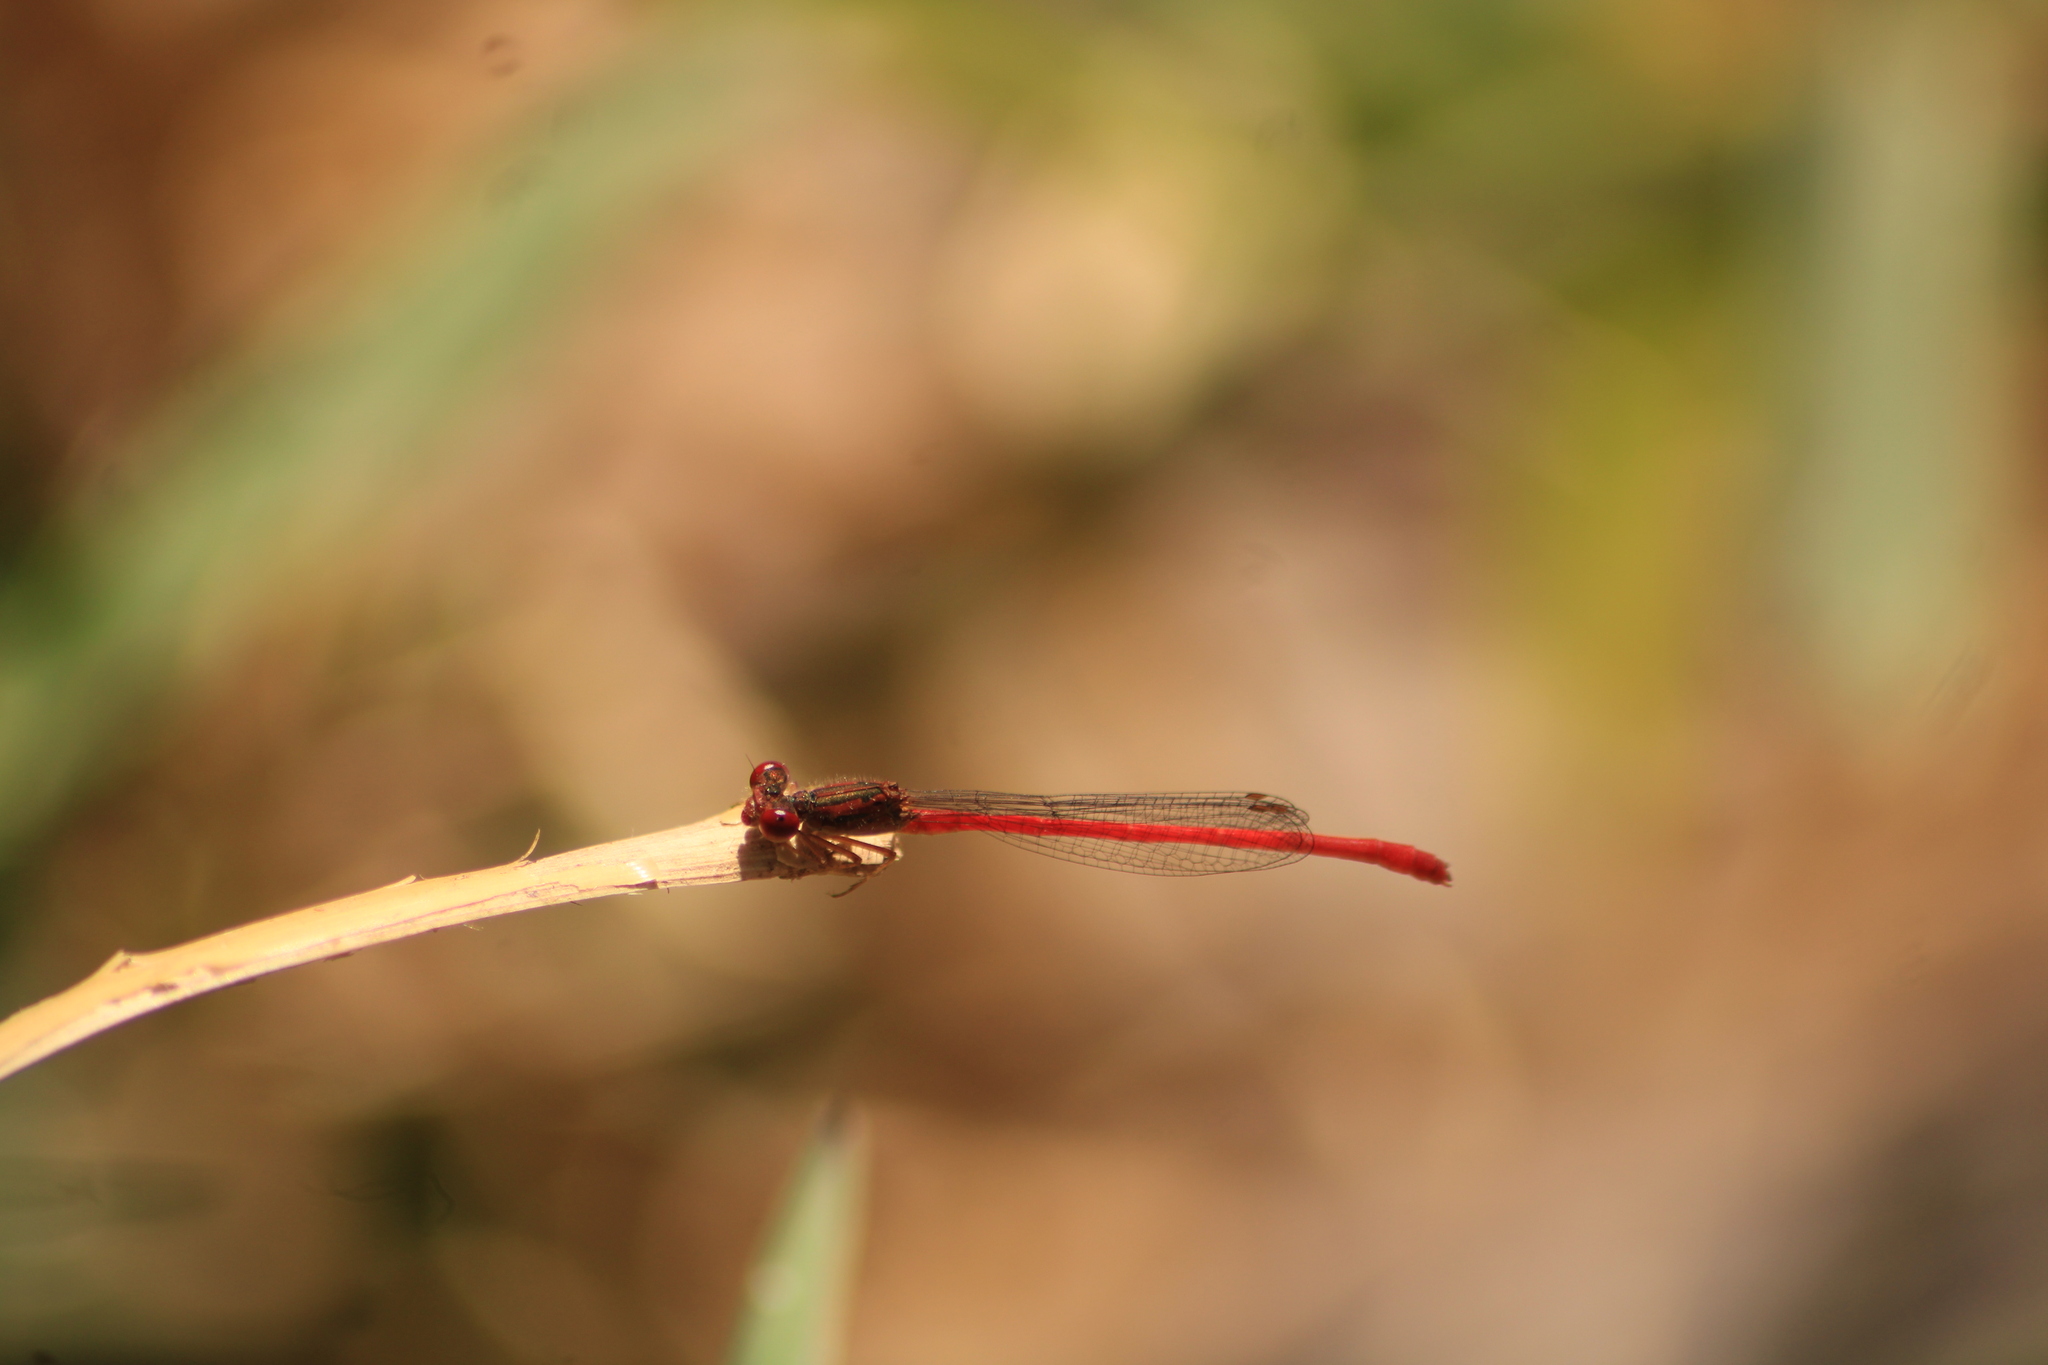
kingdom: Animalia
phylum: Arthropoda
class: Insecta
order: Odonata
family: Coenagrionidae
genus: Telebasis
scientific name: Telebasis salva
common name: Desert firetail
